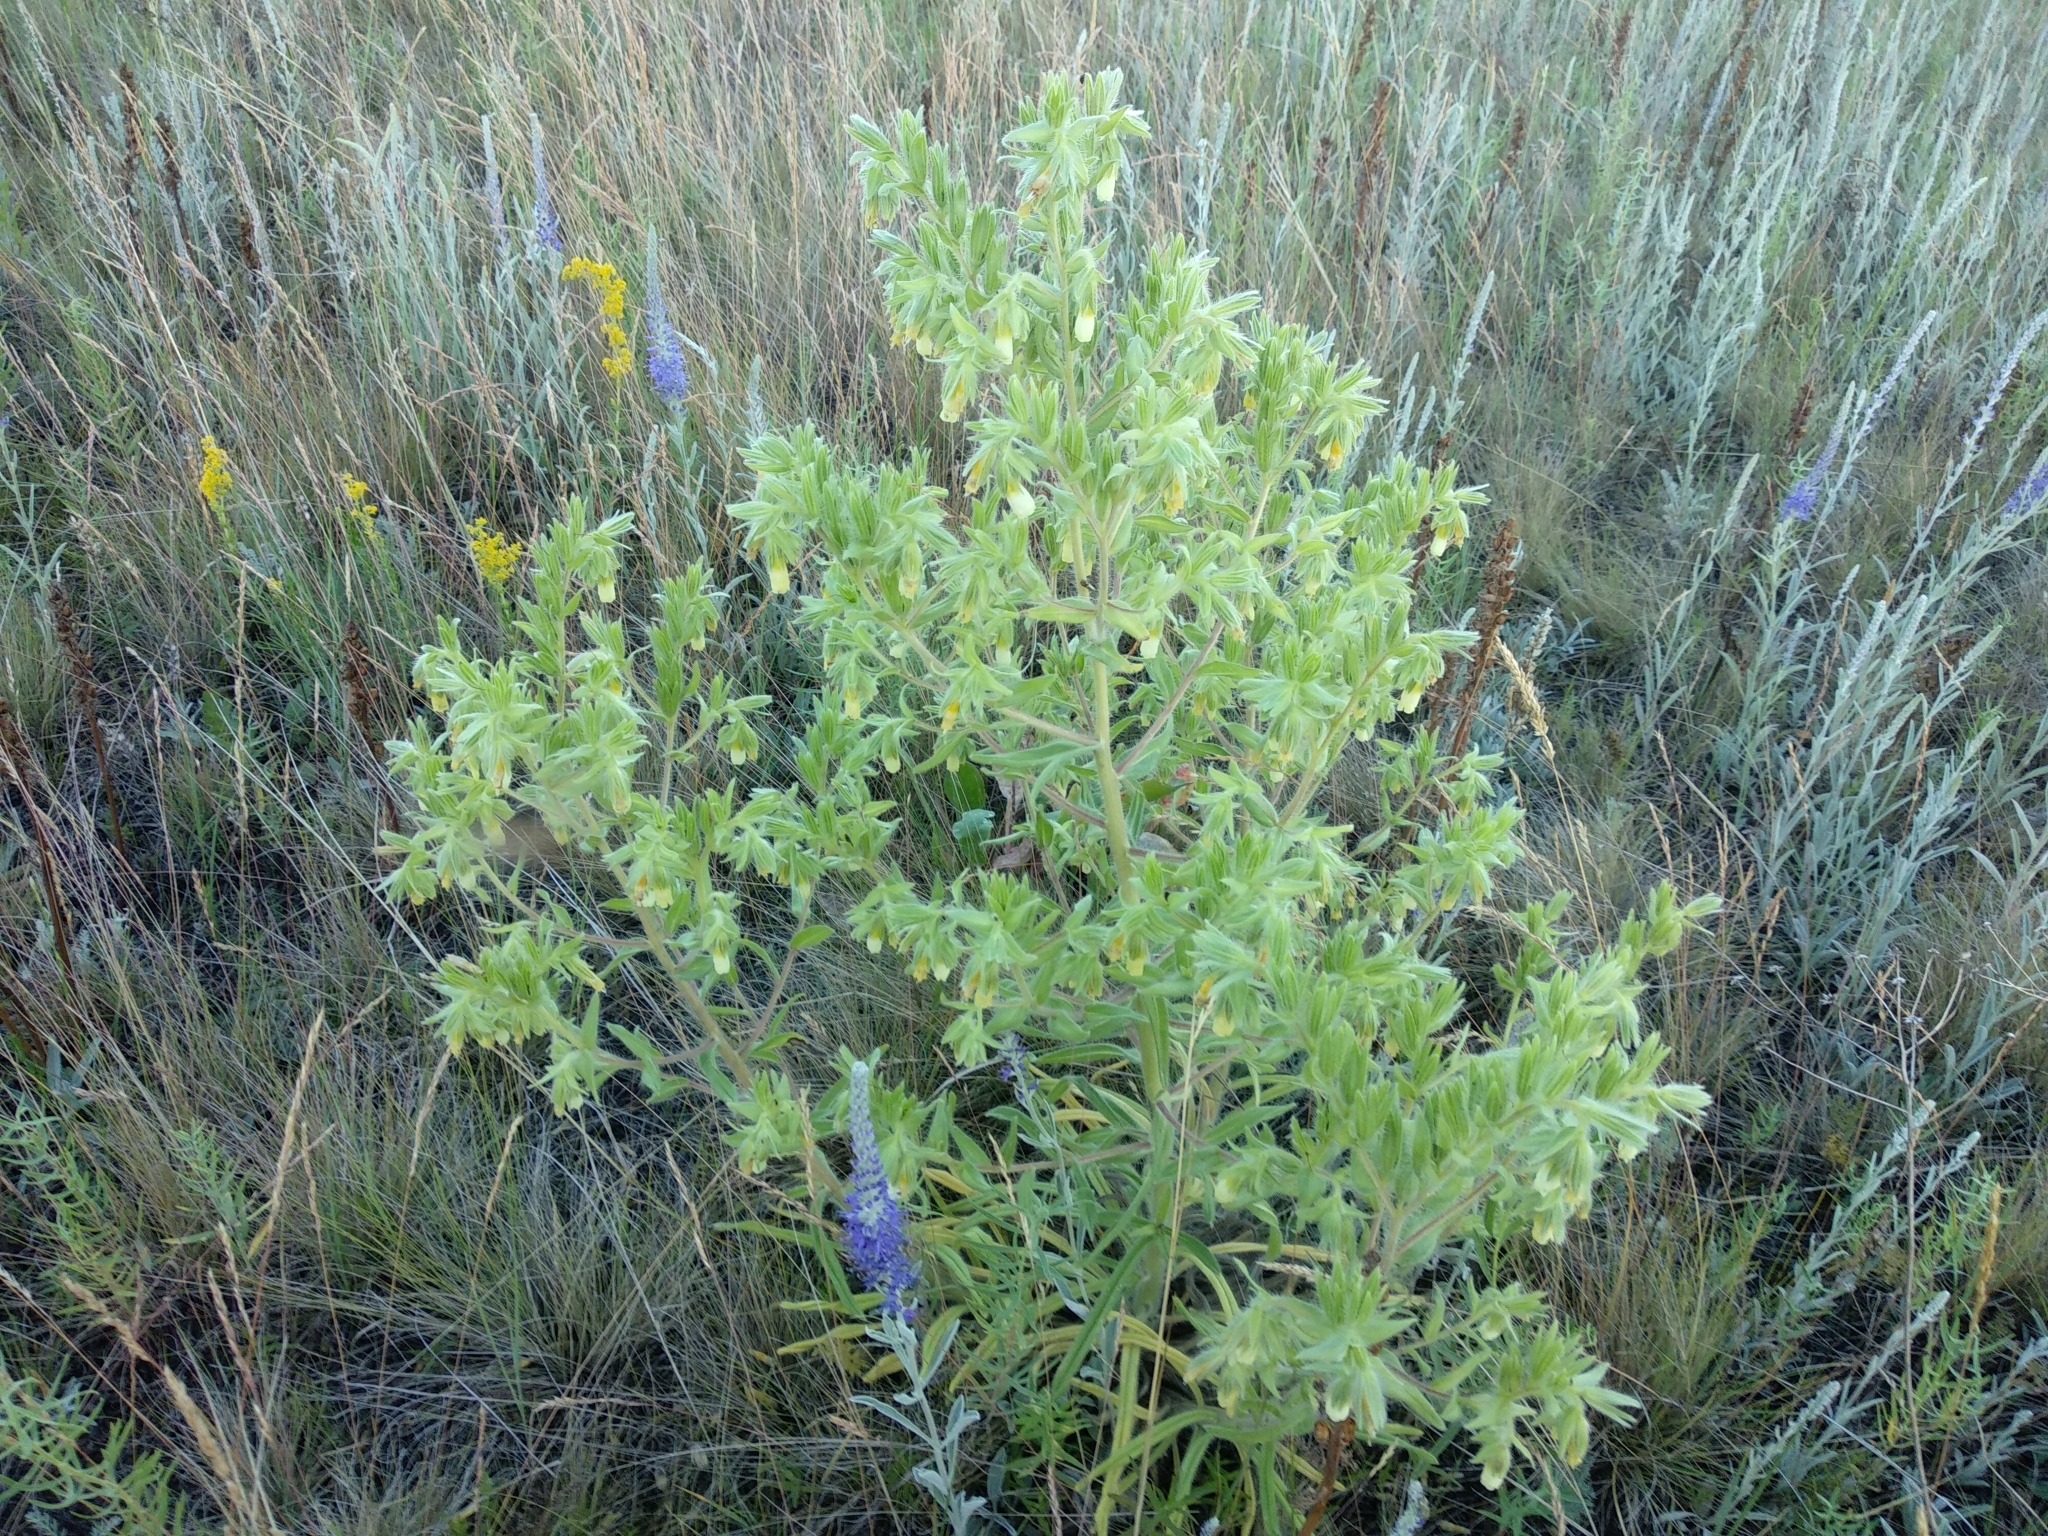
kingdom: Plantae
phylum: Tracheophyta
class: Magnoliopsida
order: Boraginales
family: Boraginaceae
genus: Onosma
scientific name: Onosma borysthenica
